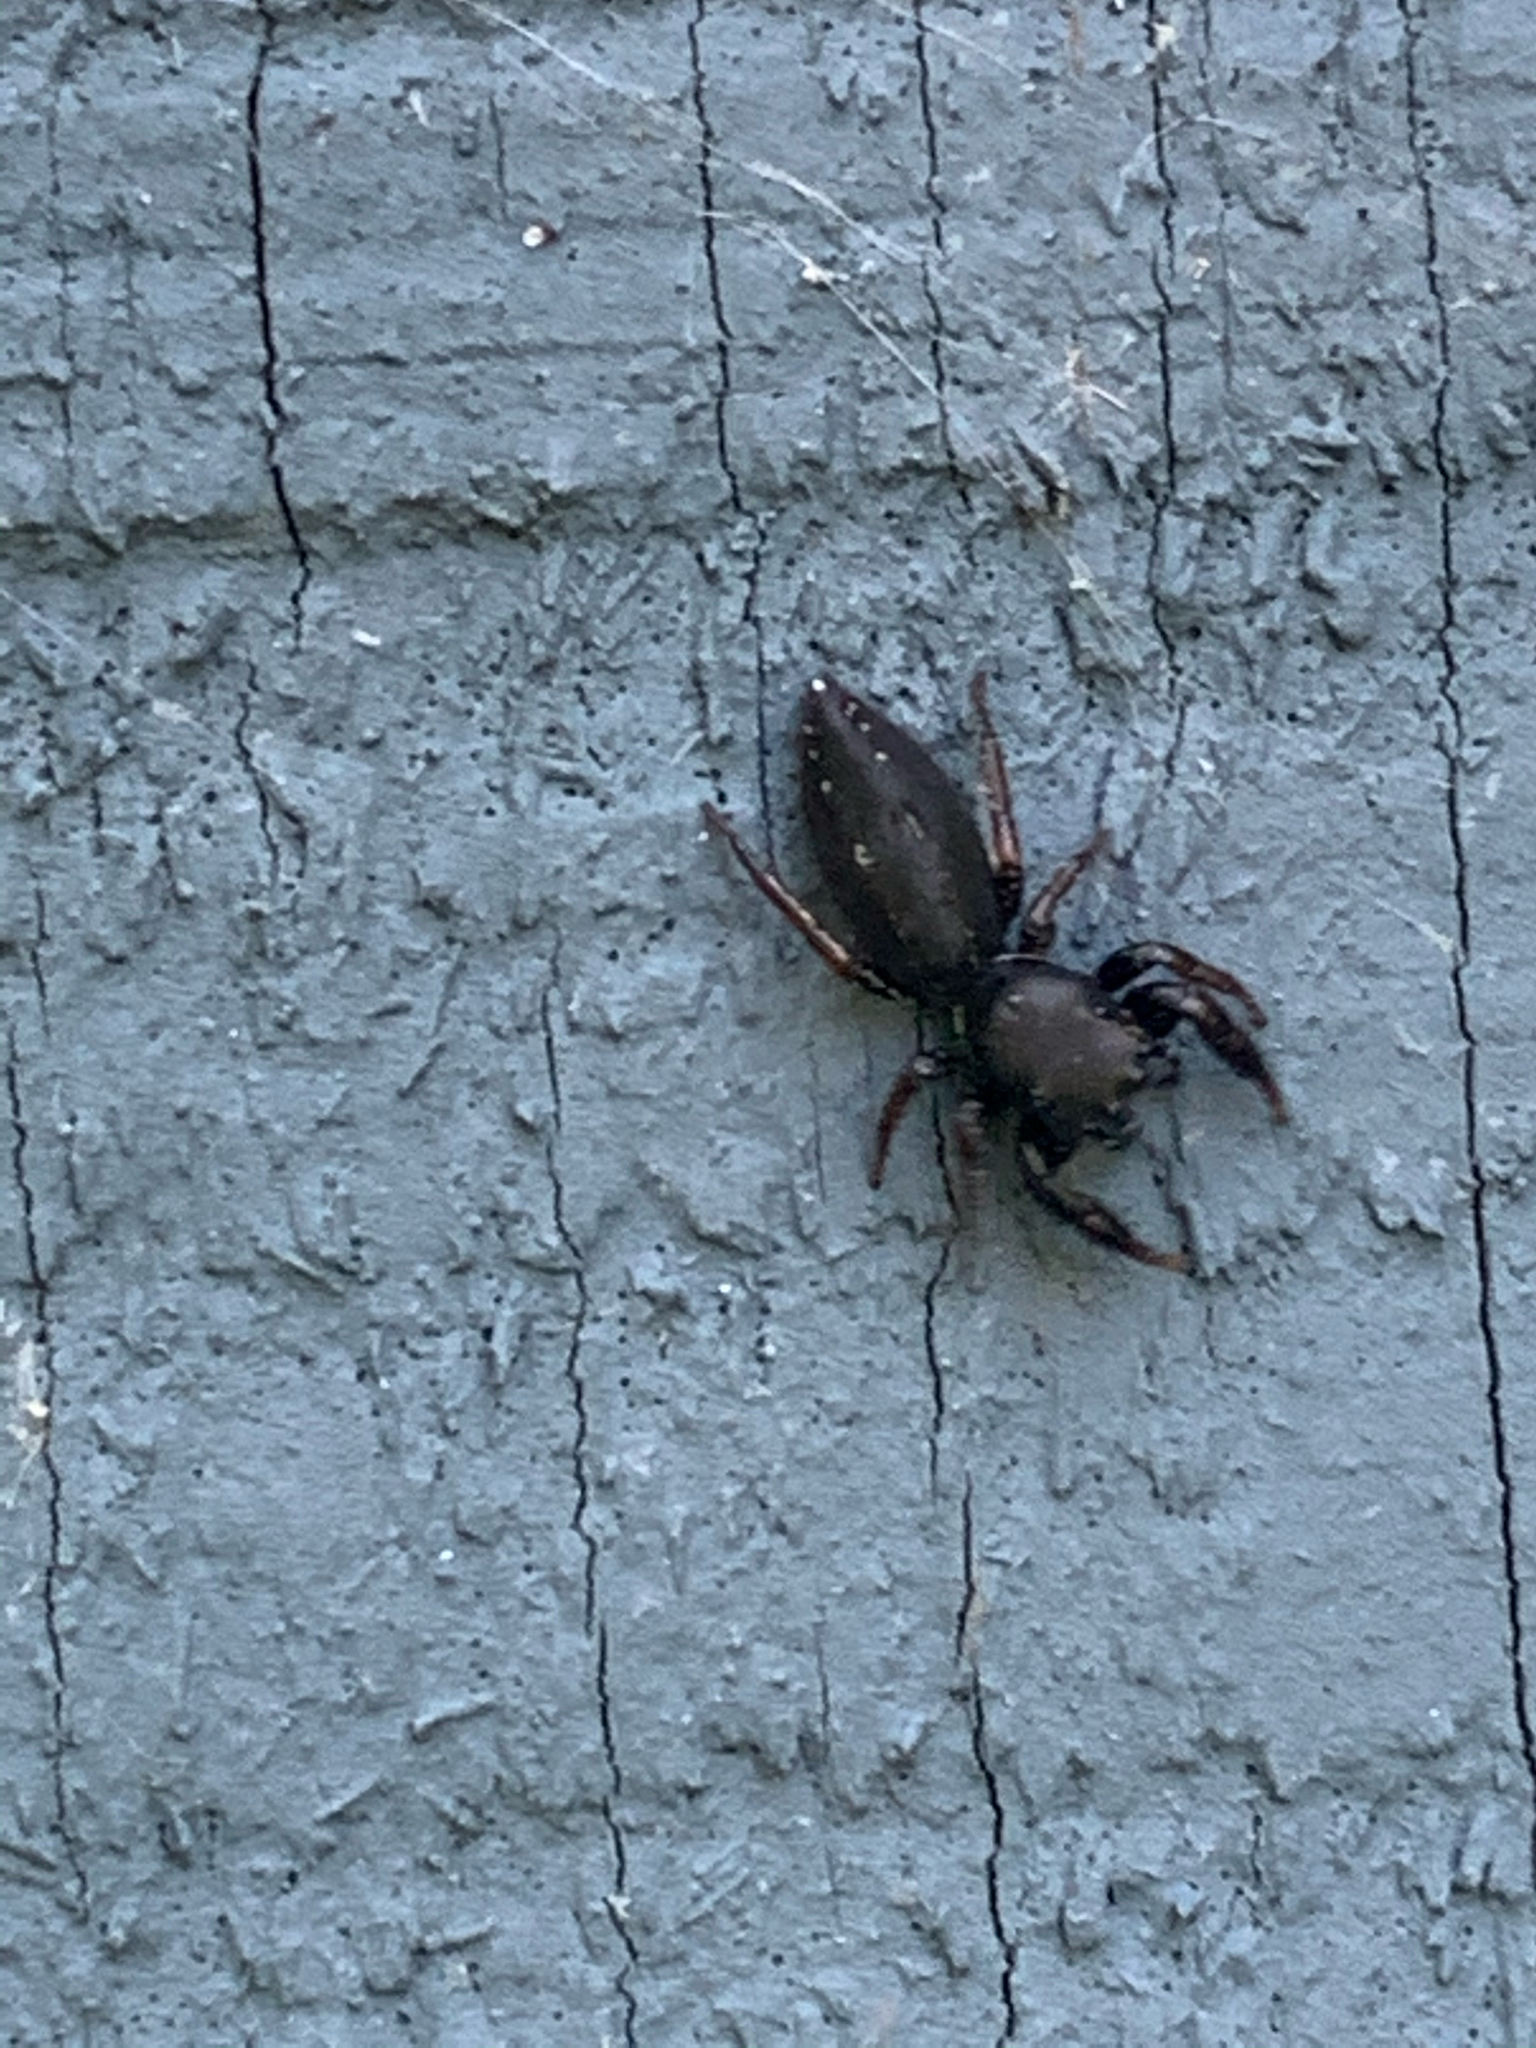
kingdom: Animalia
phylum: Arthropoda
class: Arachnida
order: Araneae
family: Salticidae
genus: Metacyrba
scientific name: Metacyrba taeniola
